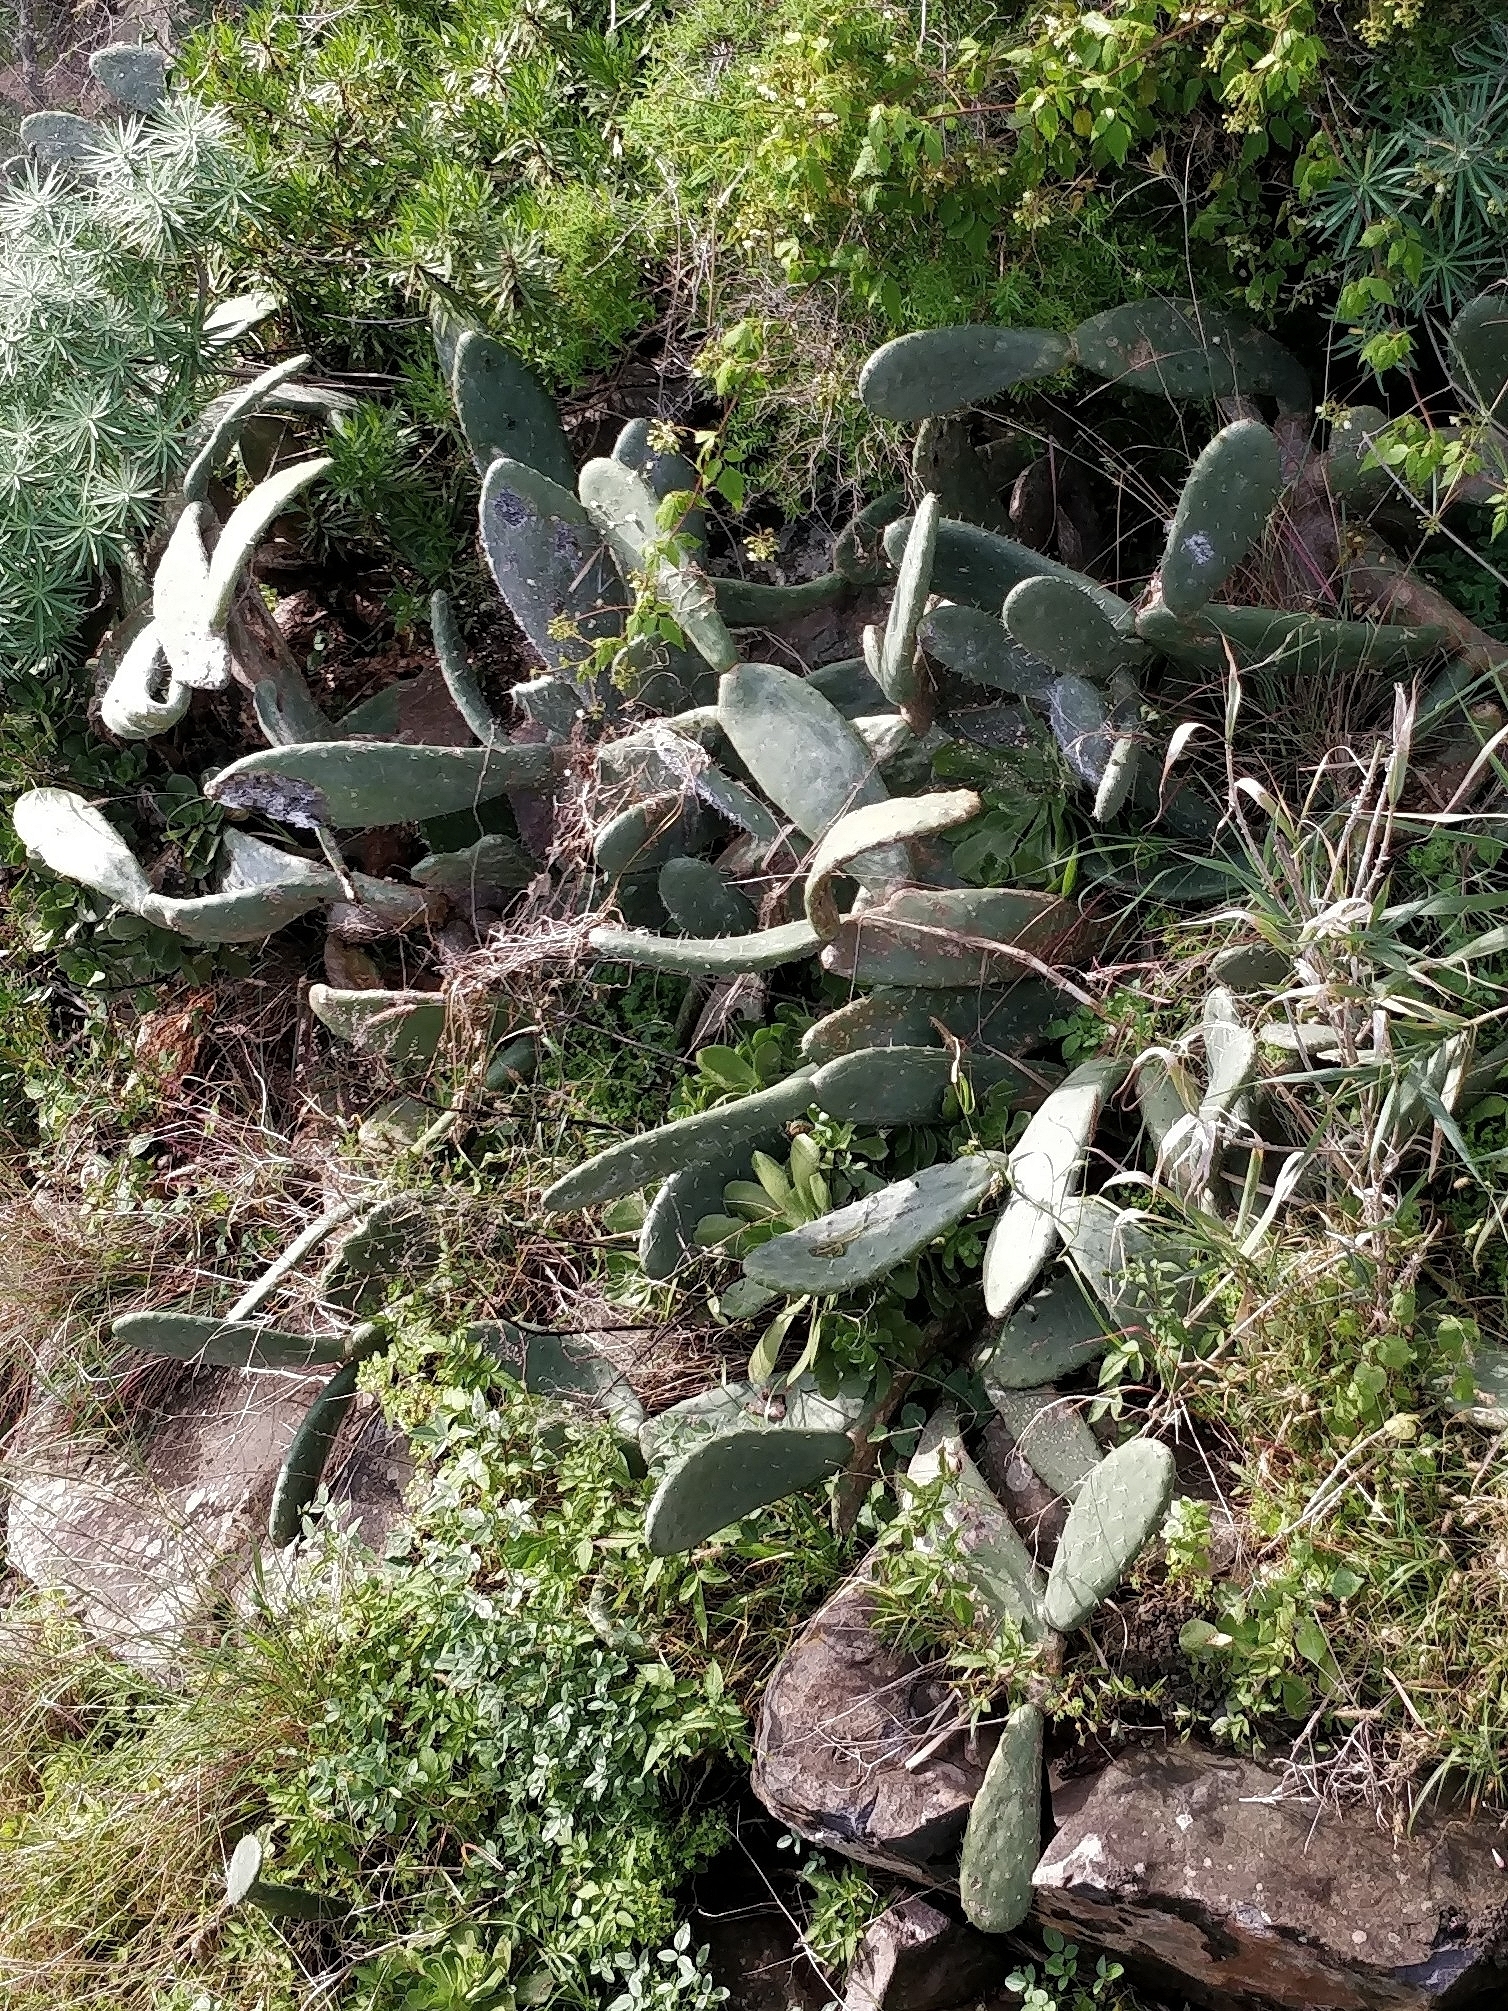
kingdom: Plantae
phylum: Tracheophyta
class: Magnoliopsida
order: Caryophyllales
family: Cactaceae
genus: Opuntia
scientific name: Opuntia ficus-indica
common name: Barbary fig
